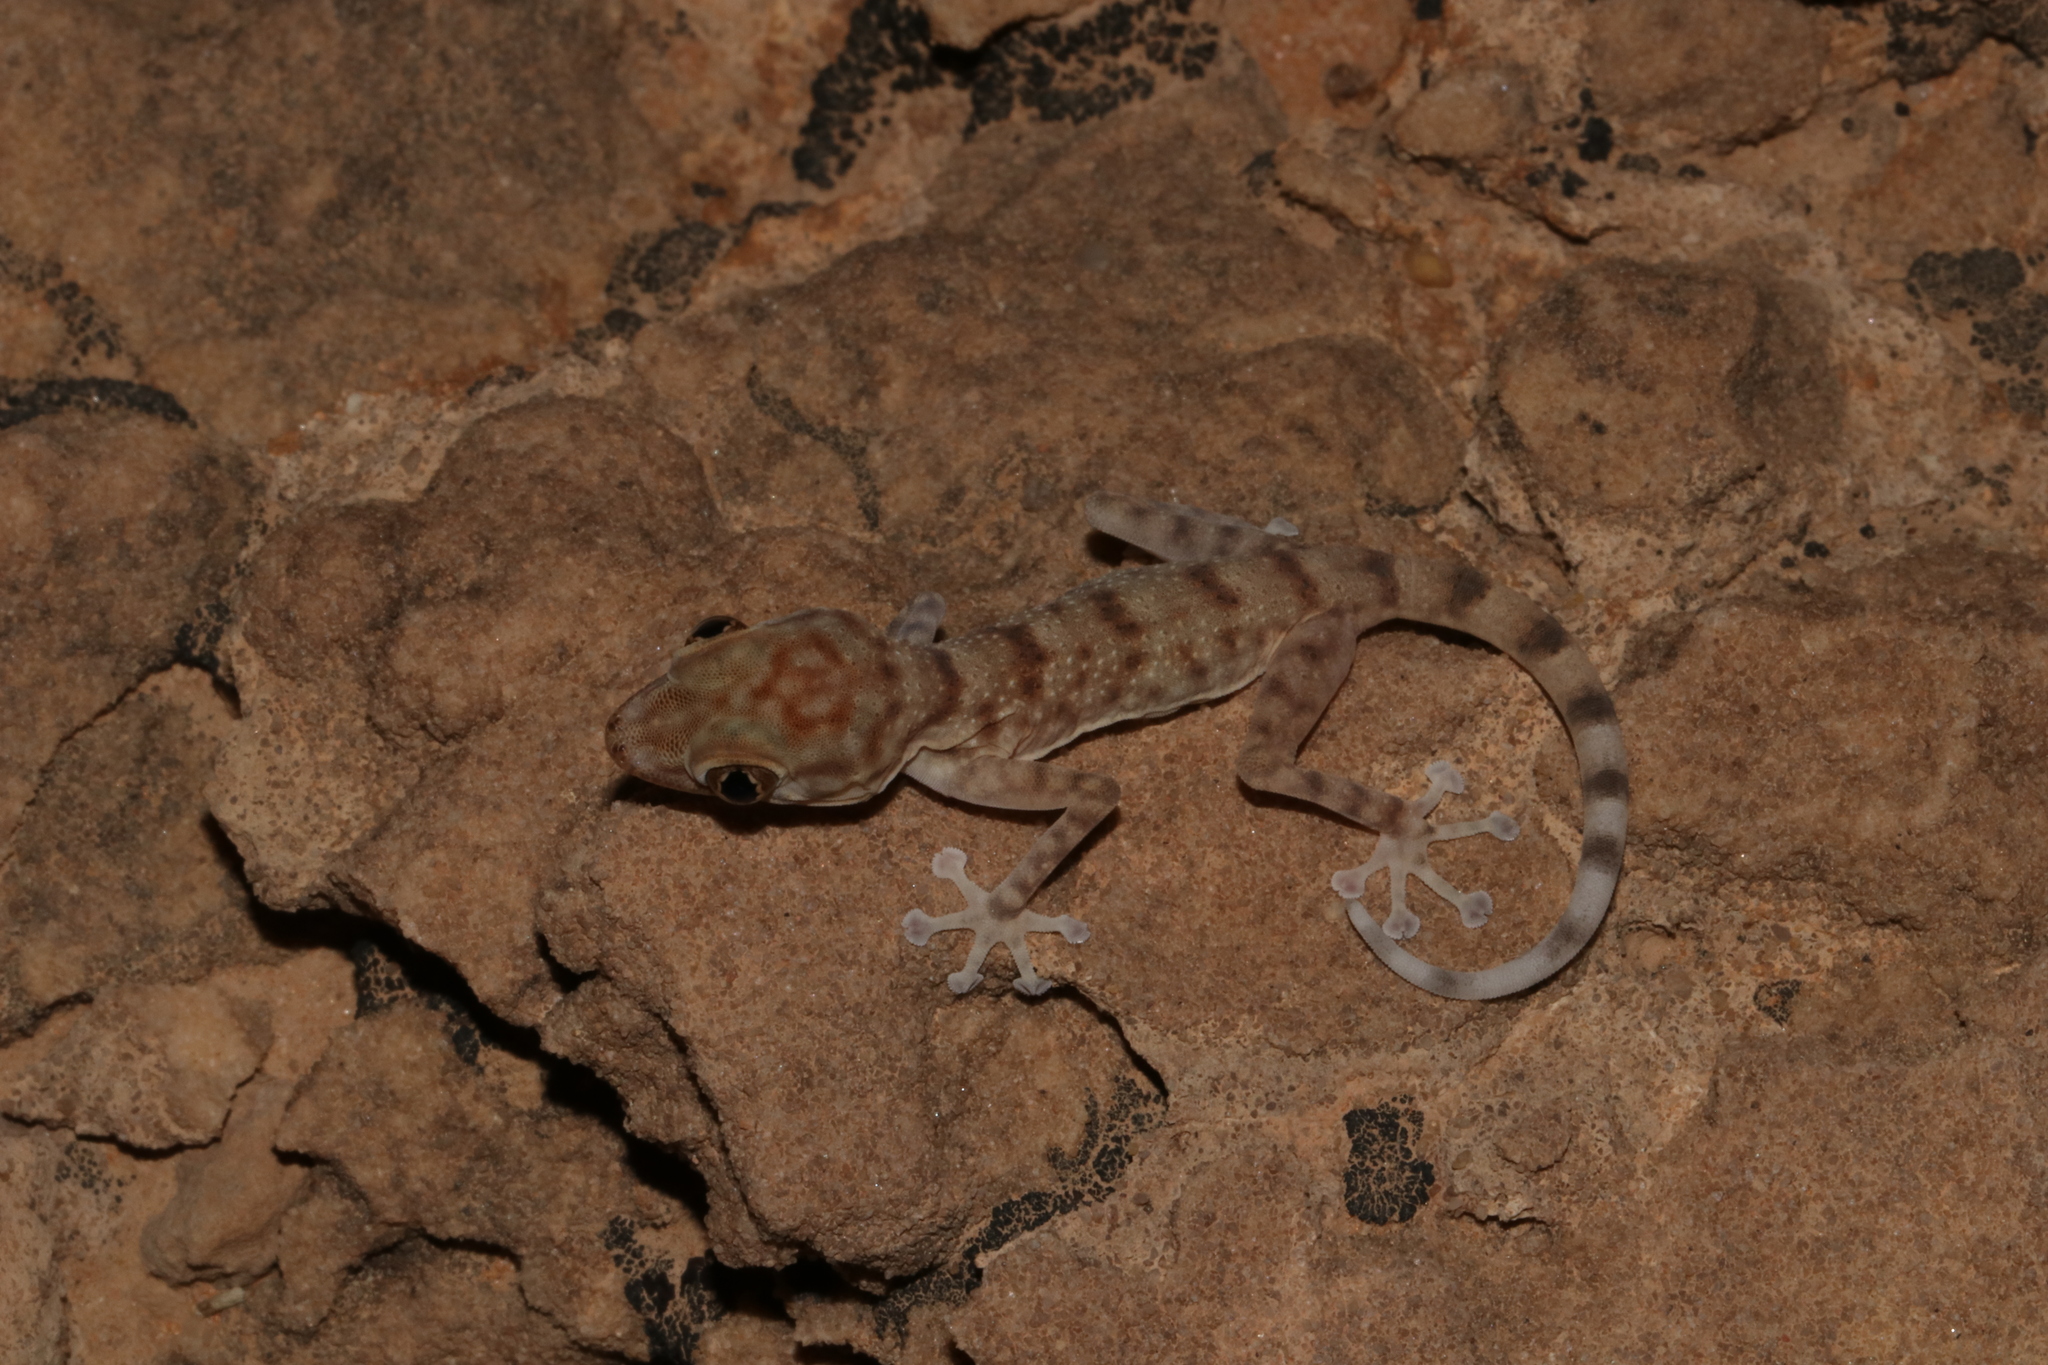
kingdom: Animalia
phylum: Chordata
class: Squamata
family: Phyllodactylidae
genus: Ptyodactylus
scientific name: Ptyodactylus hasselquistii
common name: Hasselquist’s fan-footed gecko
